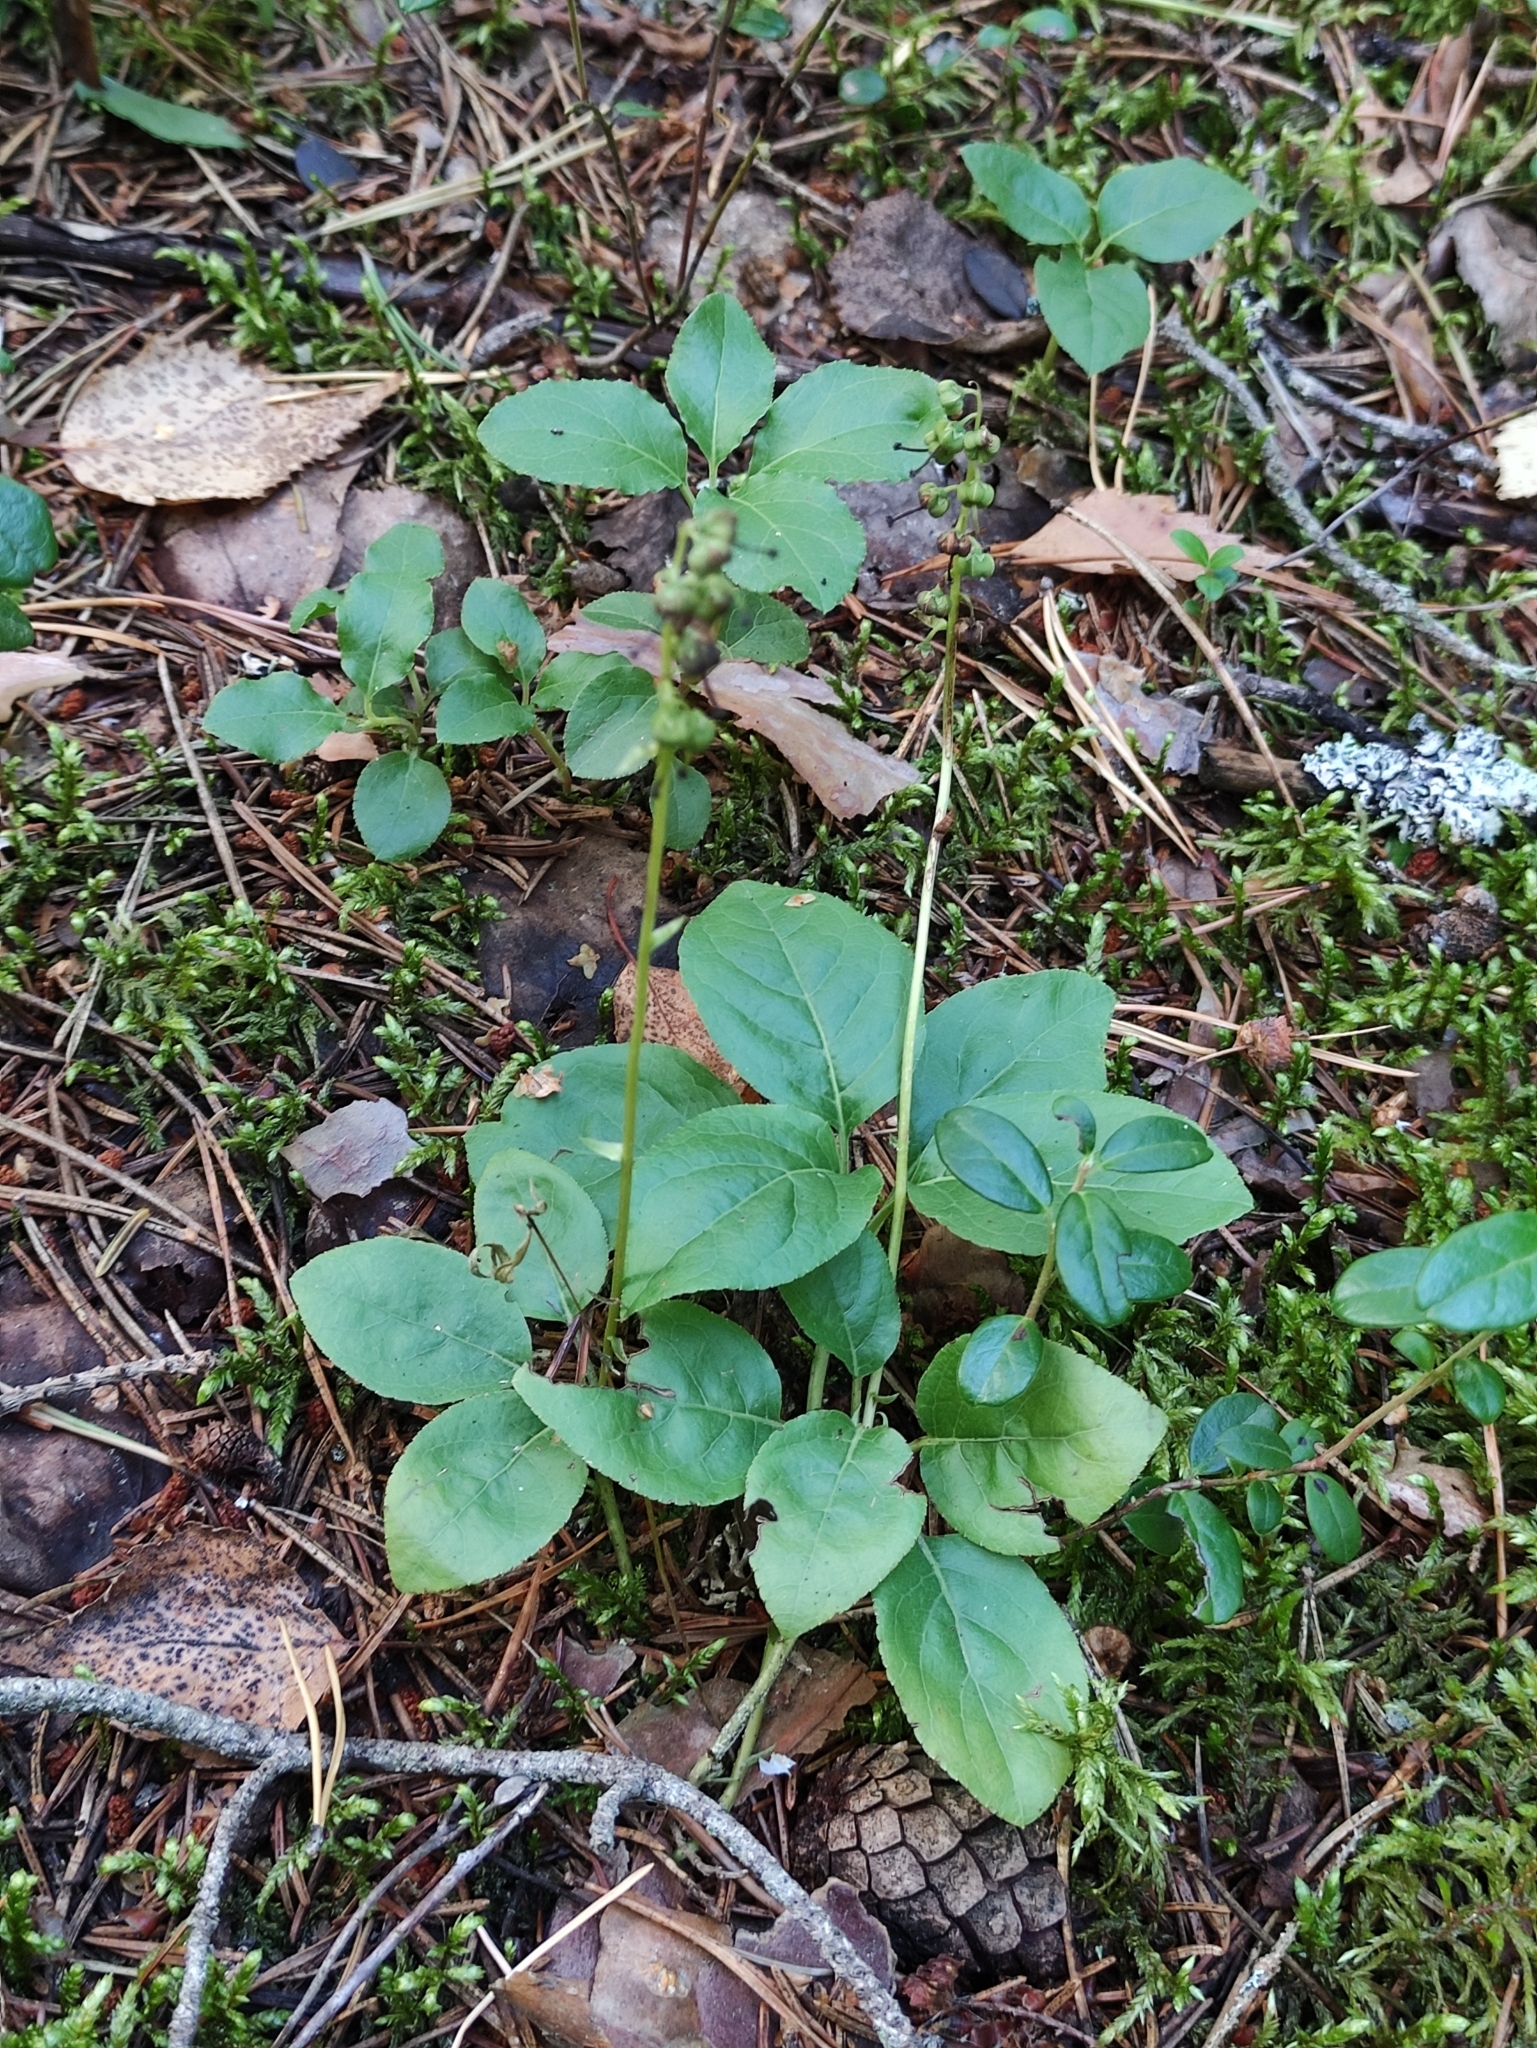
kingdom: Plantae
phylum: Tracheophyta
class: Magnoliopsida
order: Ericales
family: Ericaceae
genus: Orthilia
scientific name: Orthilia secunda
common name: One-sided orthilia
